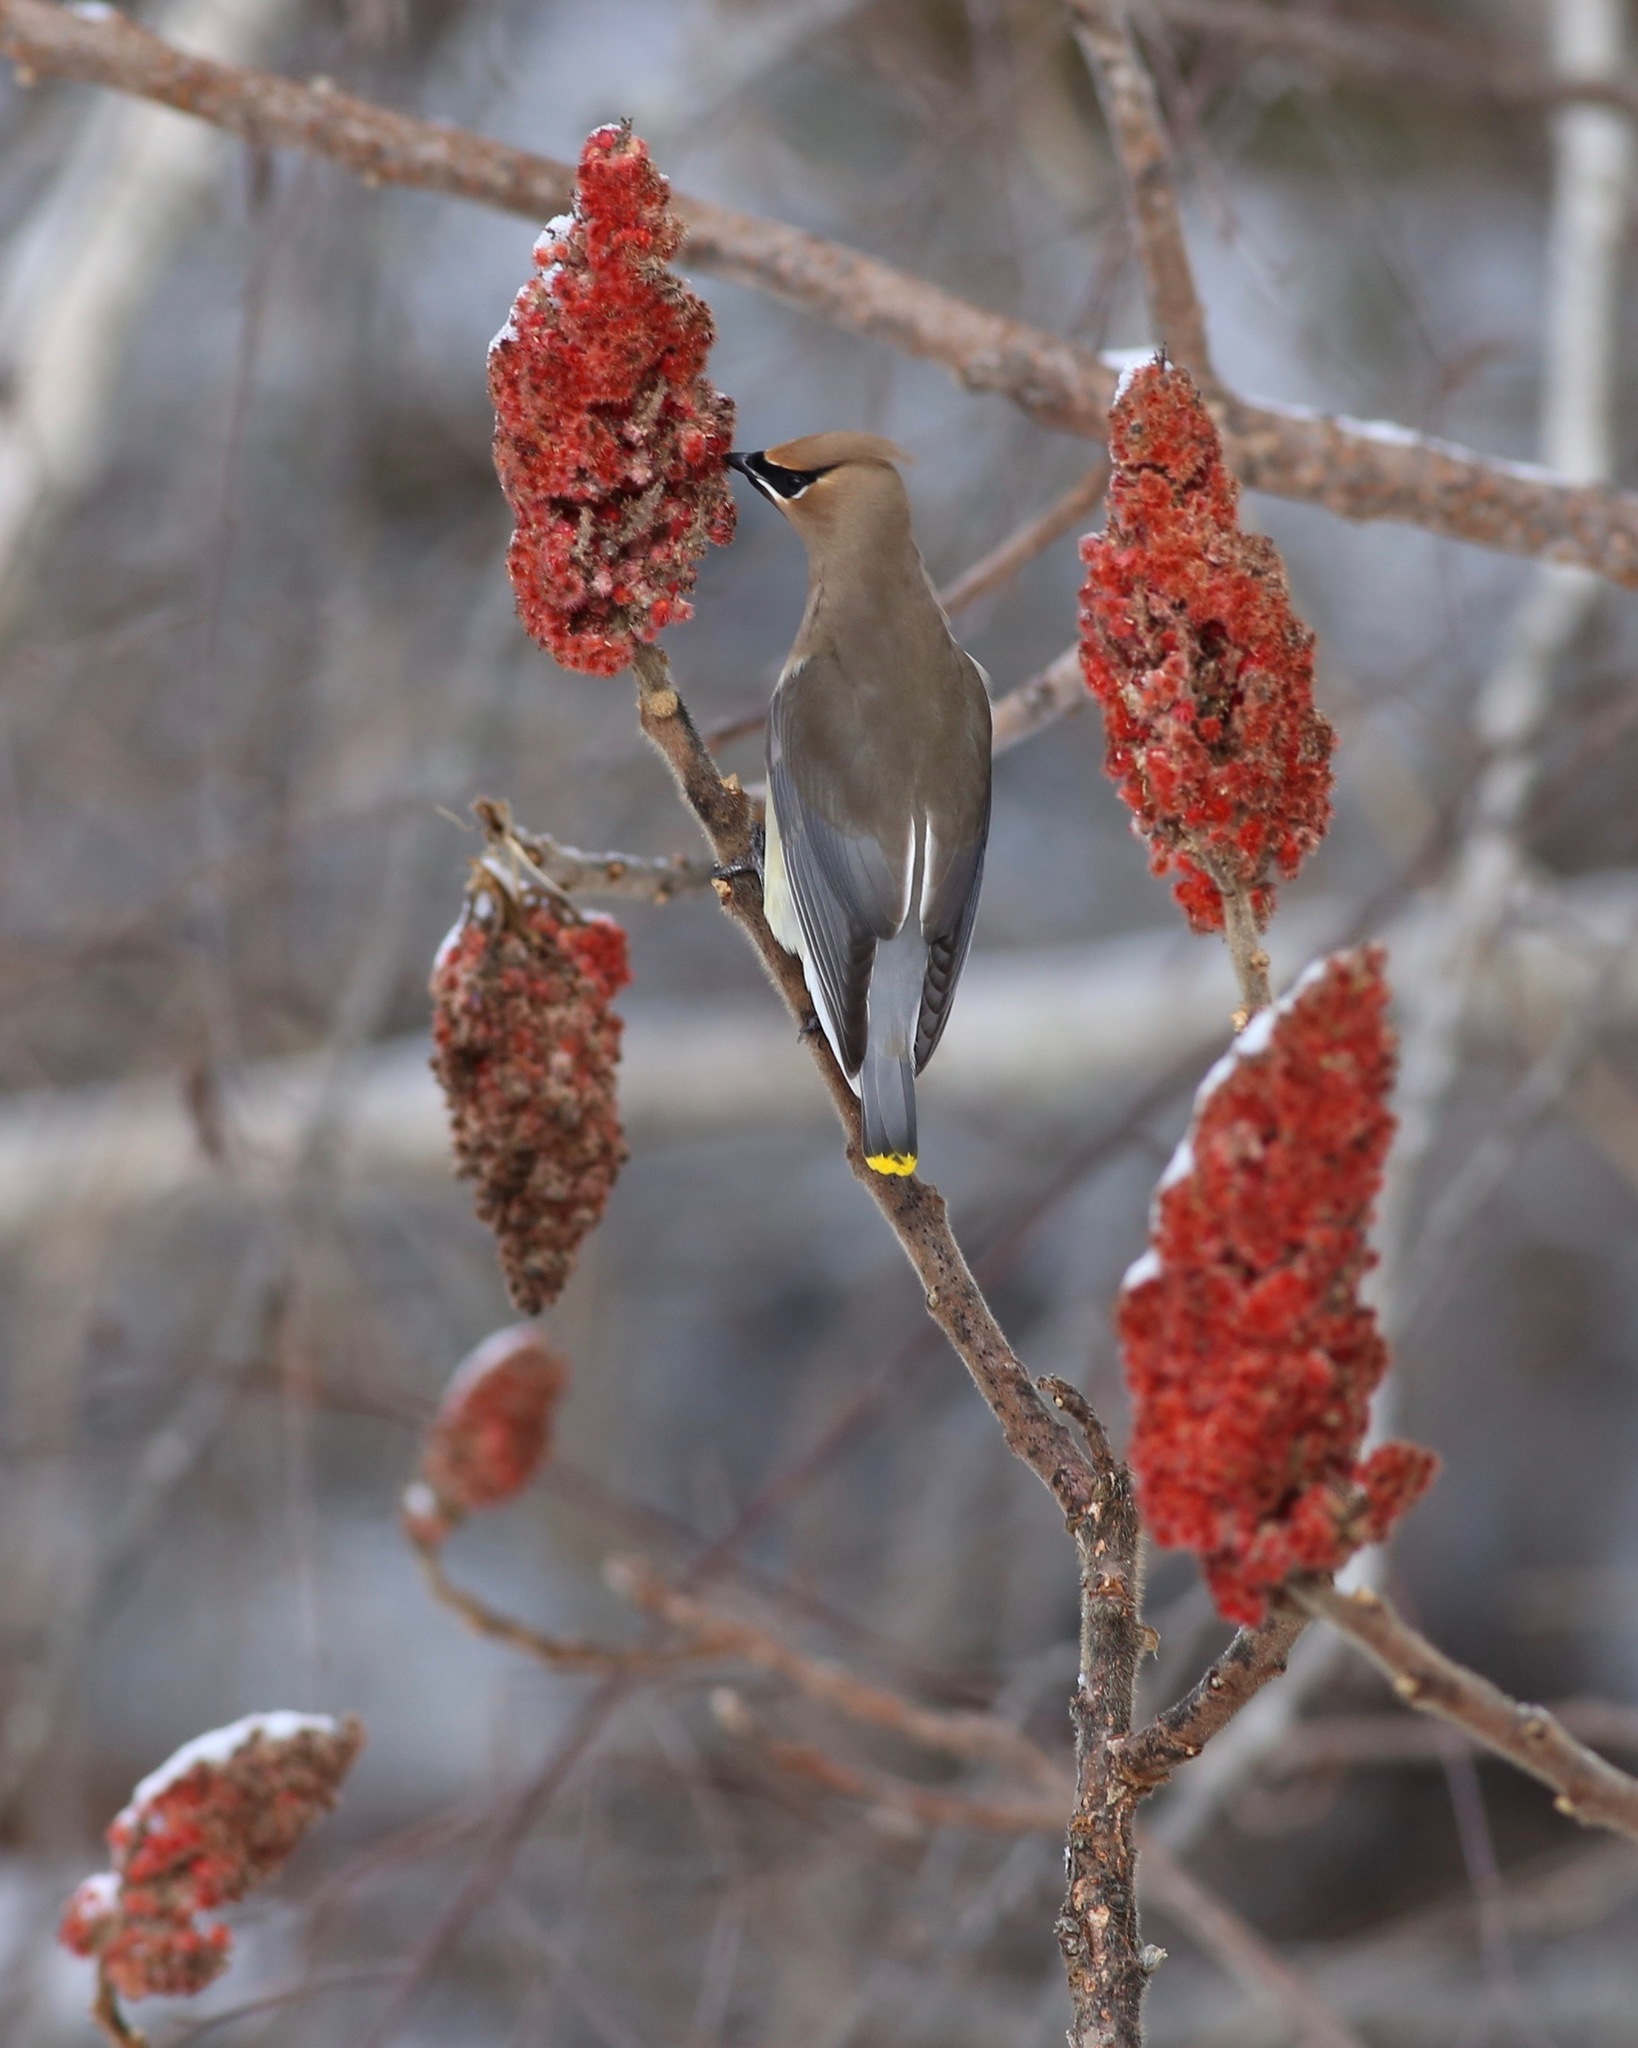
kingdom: Animalia
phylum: Chordata
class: Aves
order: Passeriformes
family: Bombycillidae
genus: Bombycilla
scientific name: Bombycilla cedrorum
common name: Cedar waxwing
